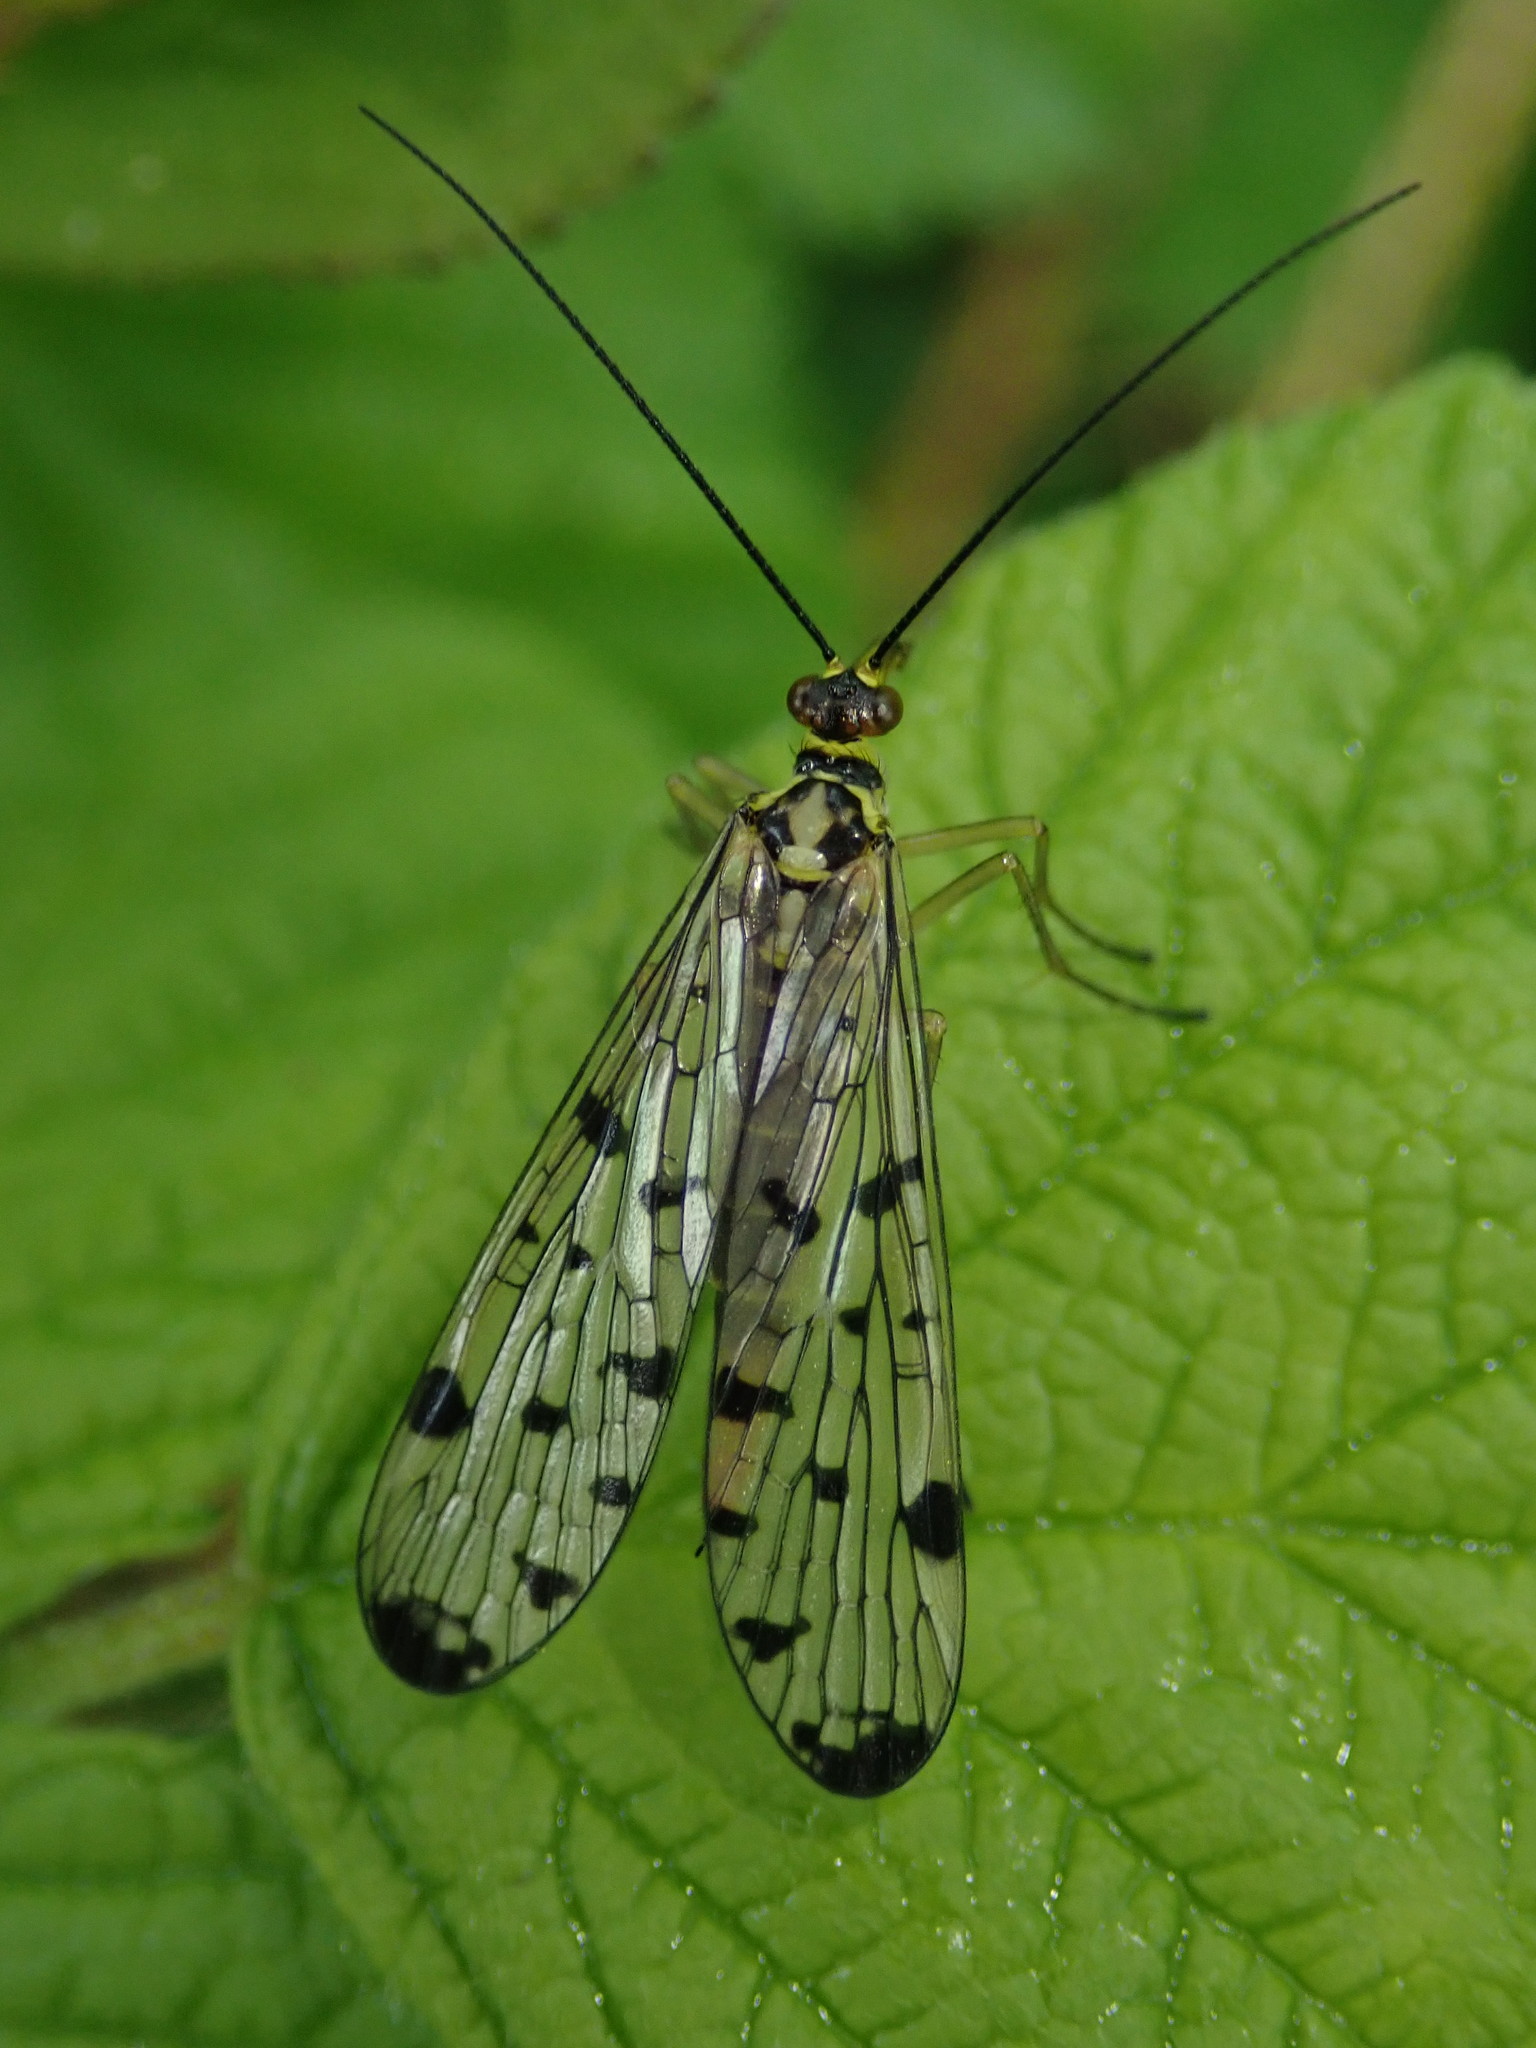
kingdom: Animalia
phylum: Arthropoda
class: Insecta
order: Mecoptera
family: Panorpidae
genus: Panorpa
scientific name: Panorpa germanica
